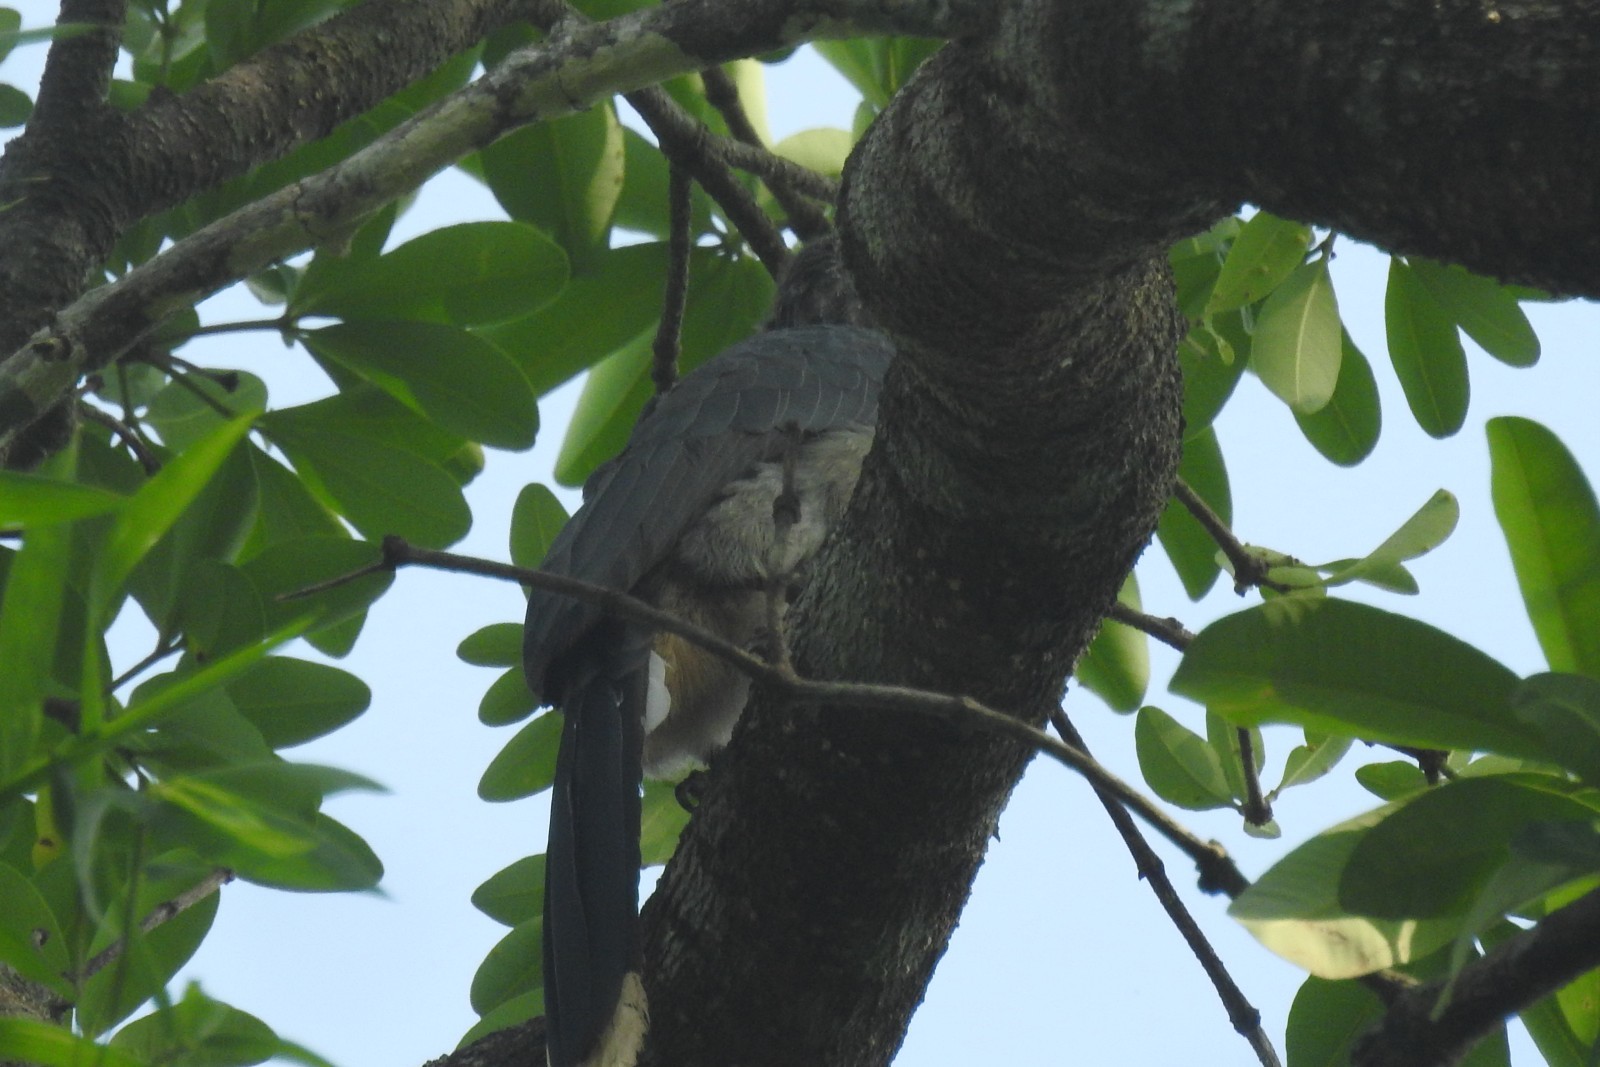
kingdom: Animalia
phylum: Chordata
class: Aves
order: Bucerotiformes
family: Bucerotidae
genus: Ocyceros
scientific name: Ocyceros griseus
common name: Malabar grey hornbill
